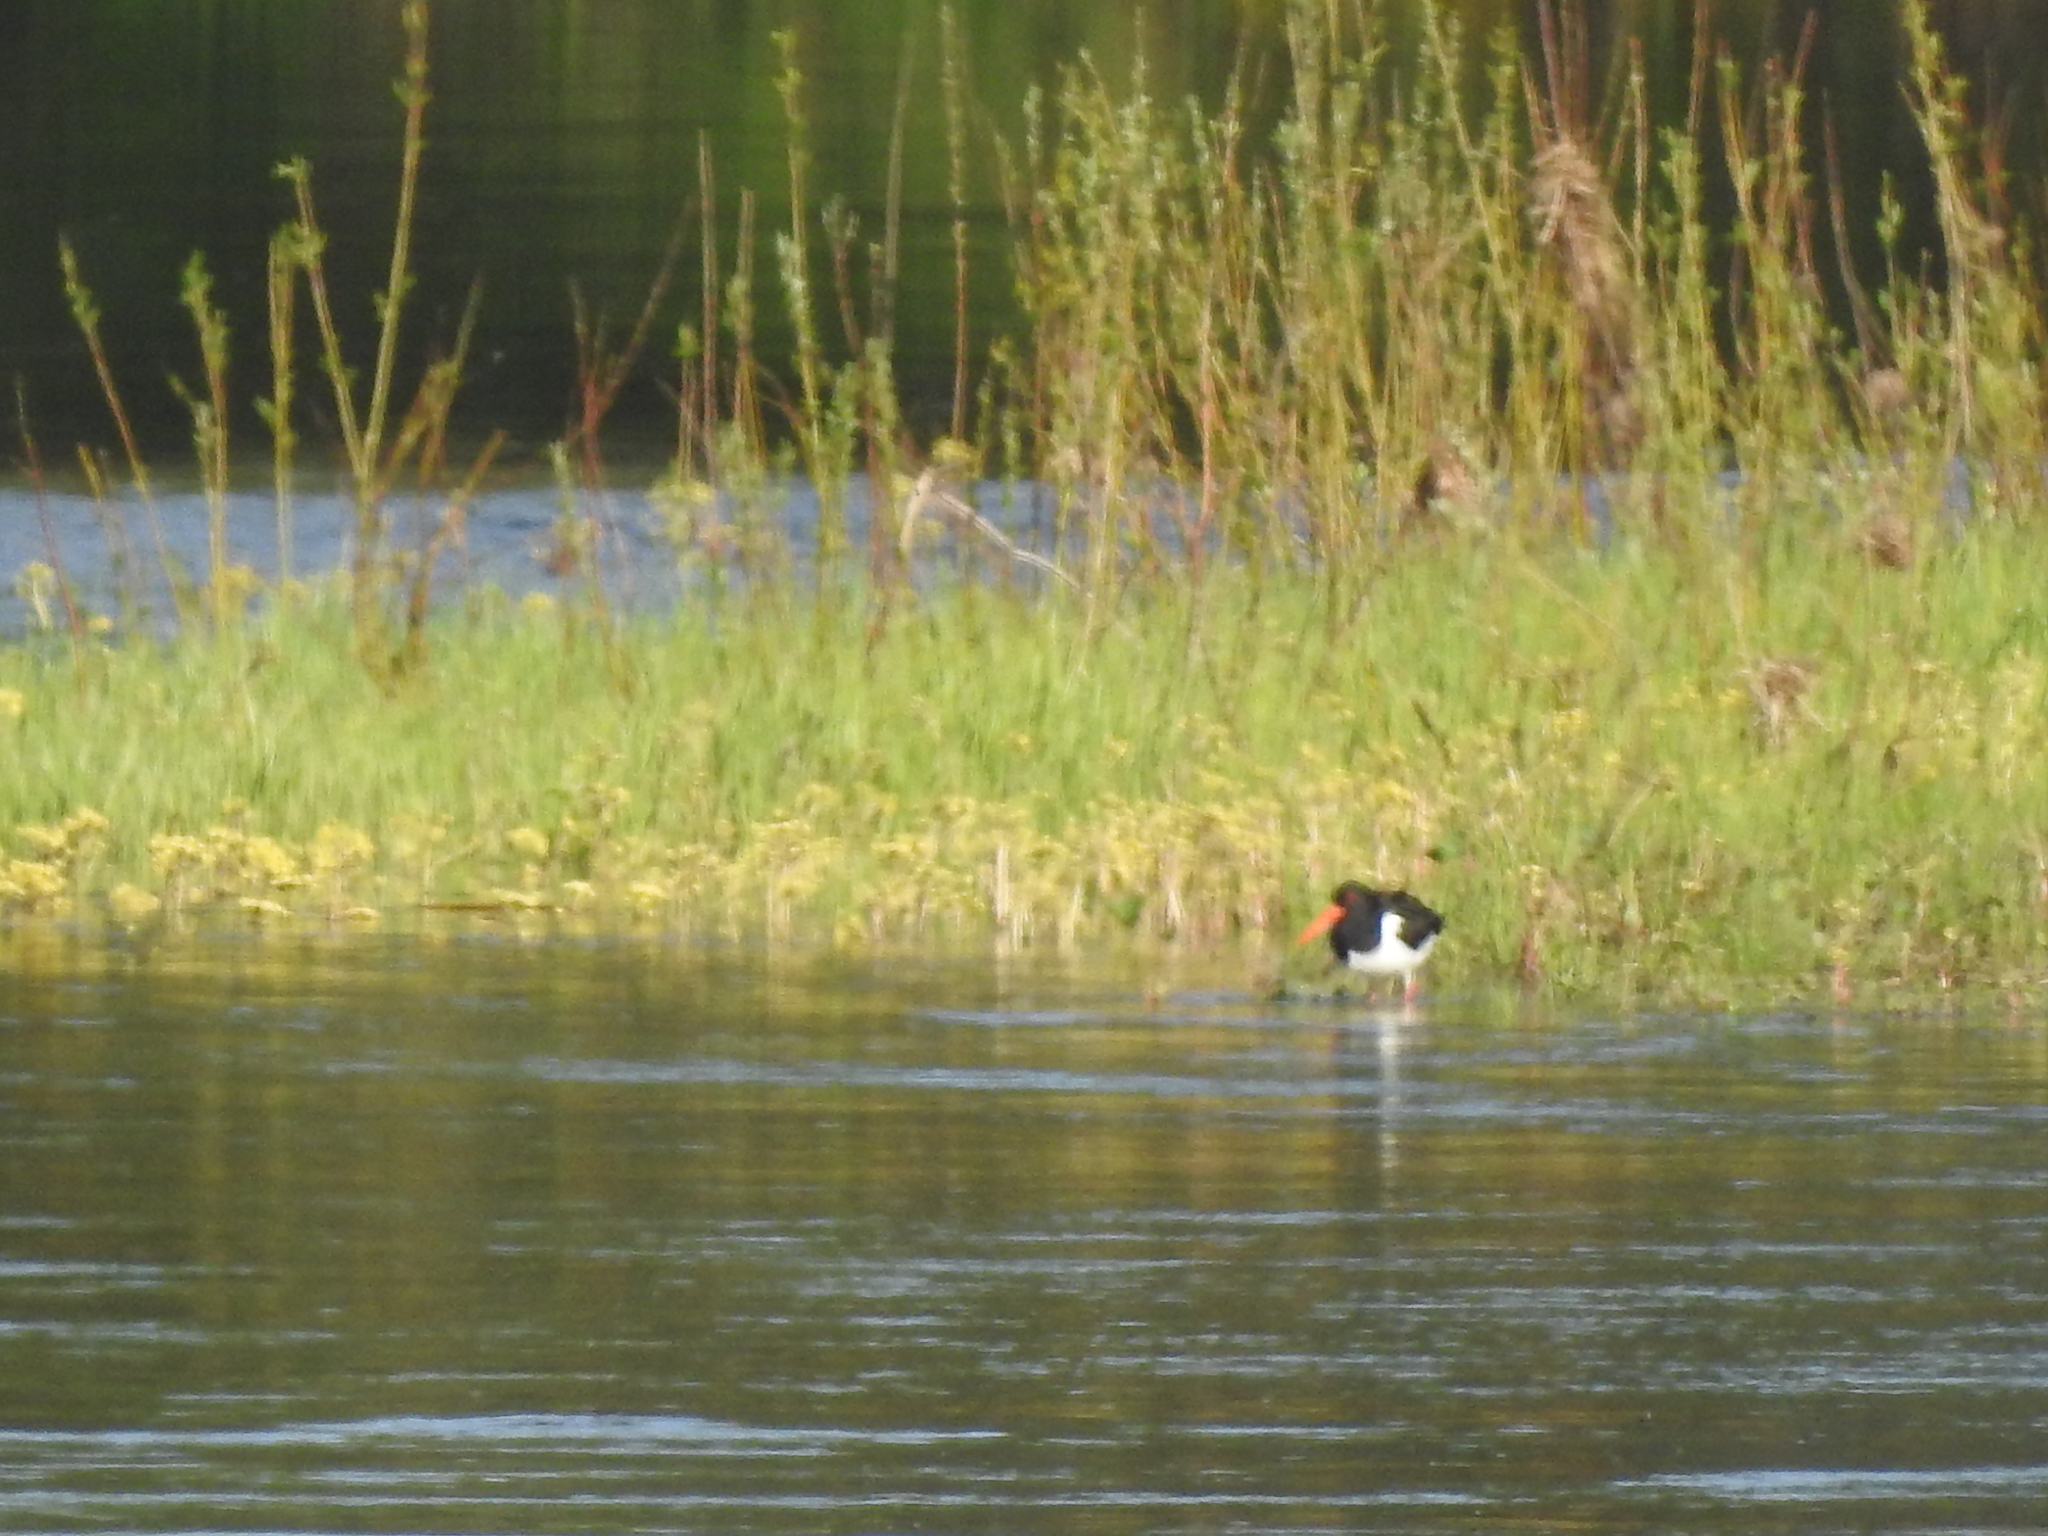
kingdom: Animalia
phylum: Chordata
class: Aves
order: Charadriiformes
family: Haematopodidae
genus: Haematopus
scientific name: Haematopus ostralegus
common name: Eurasian oystercatcher
